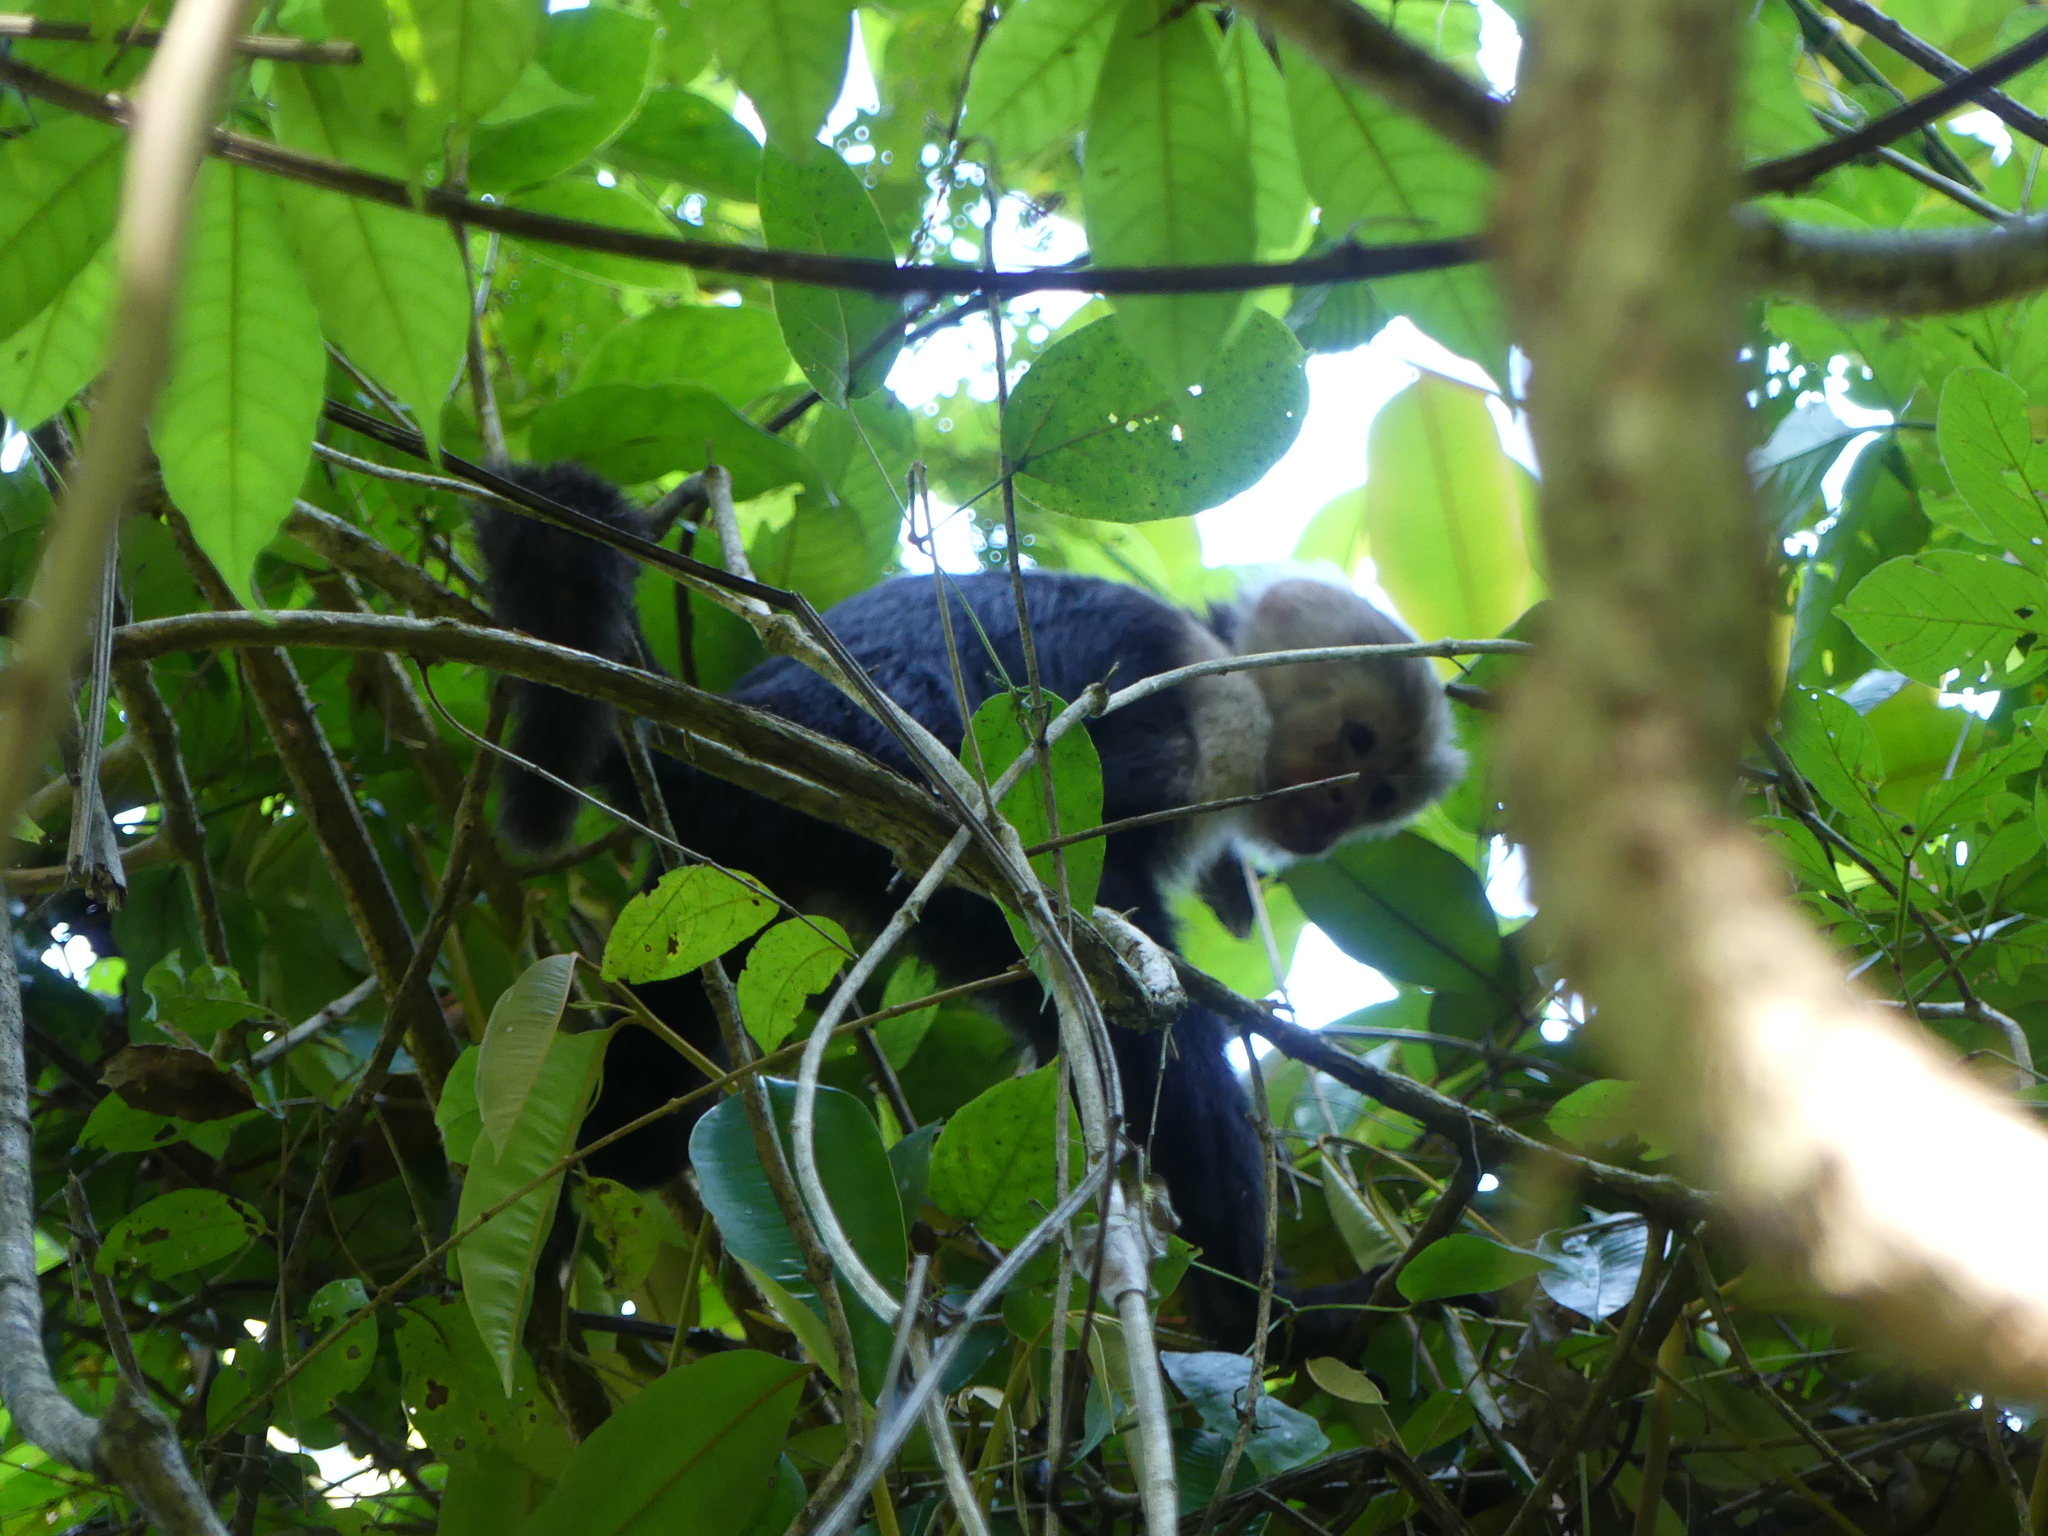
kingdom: Animalia
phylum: Chordata
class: Mammalia
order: Primates
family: Cebidae
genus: Cebus
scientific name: Cebus imitator
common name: Panamanian white-faced capuchin
